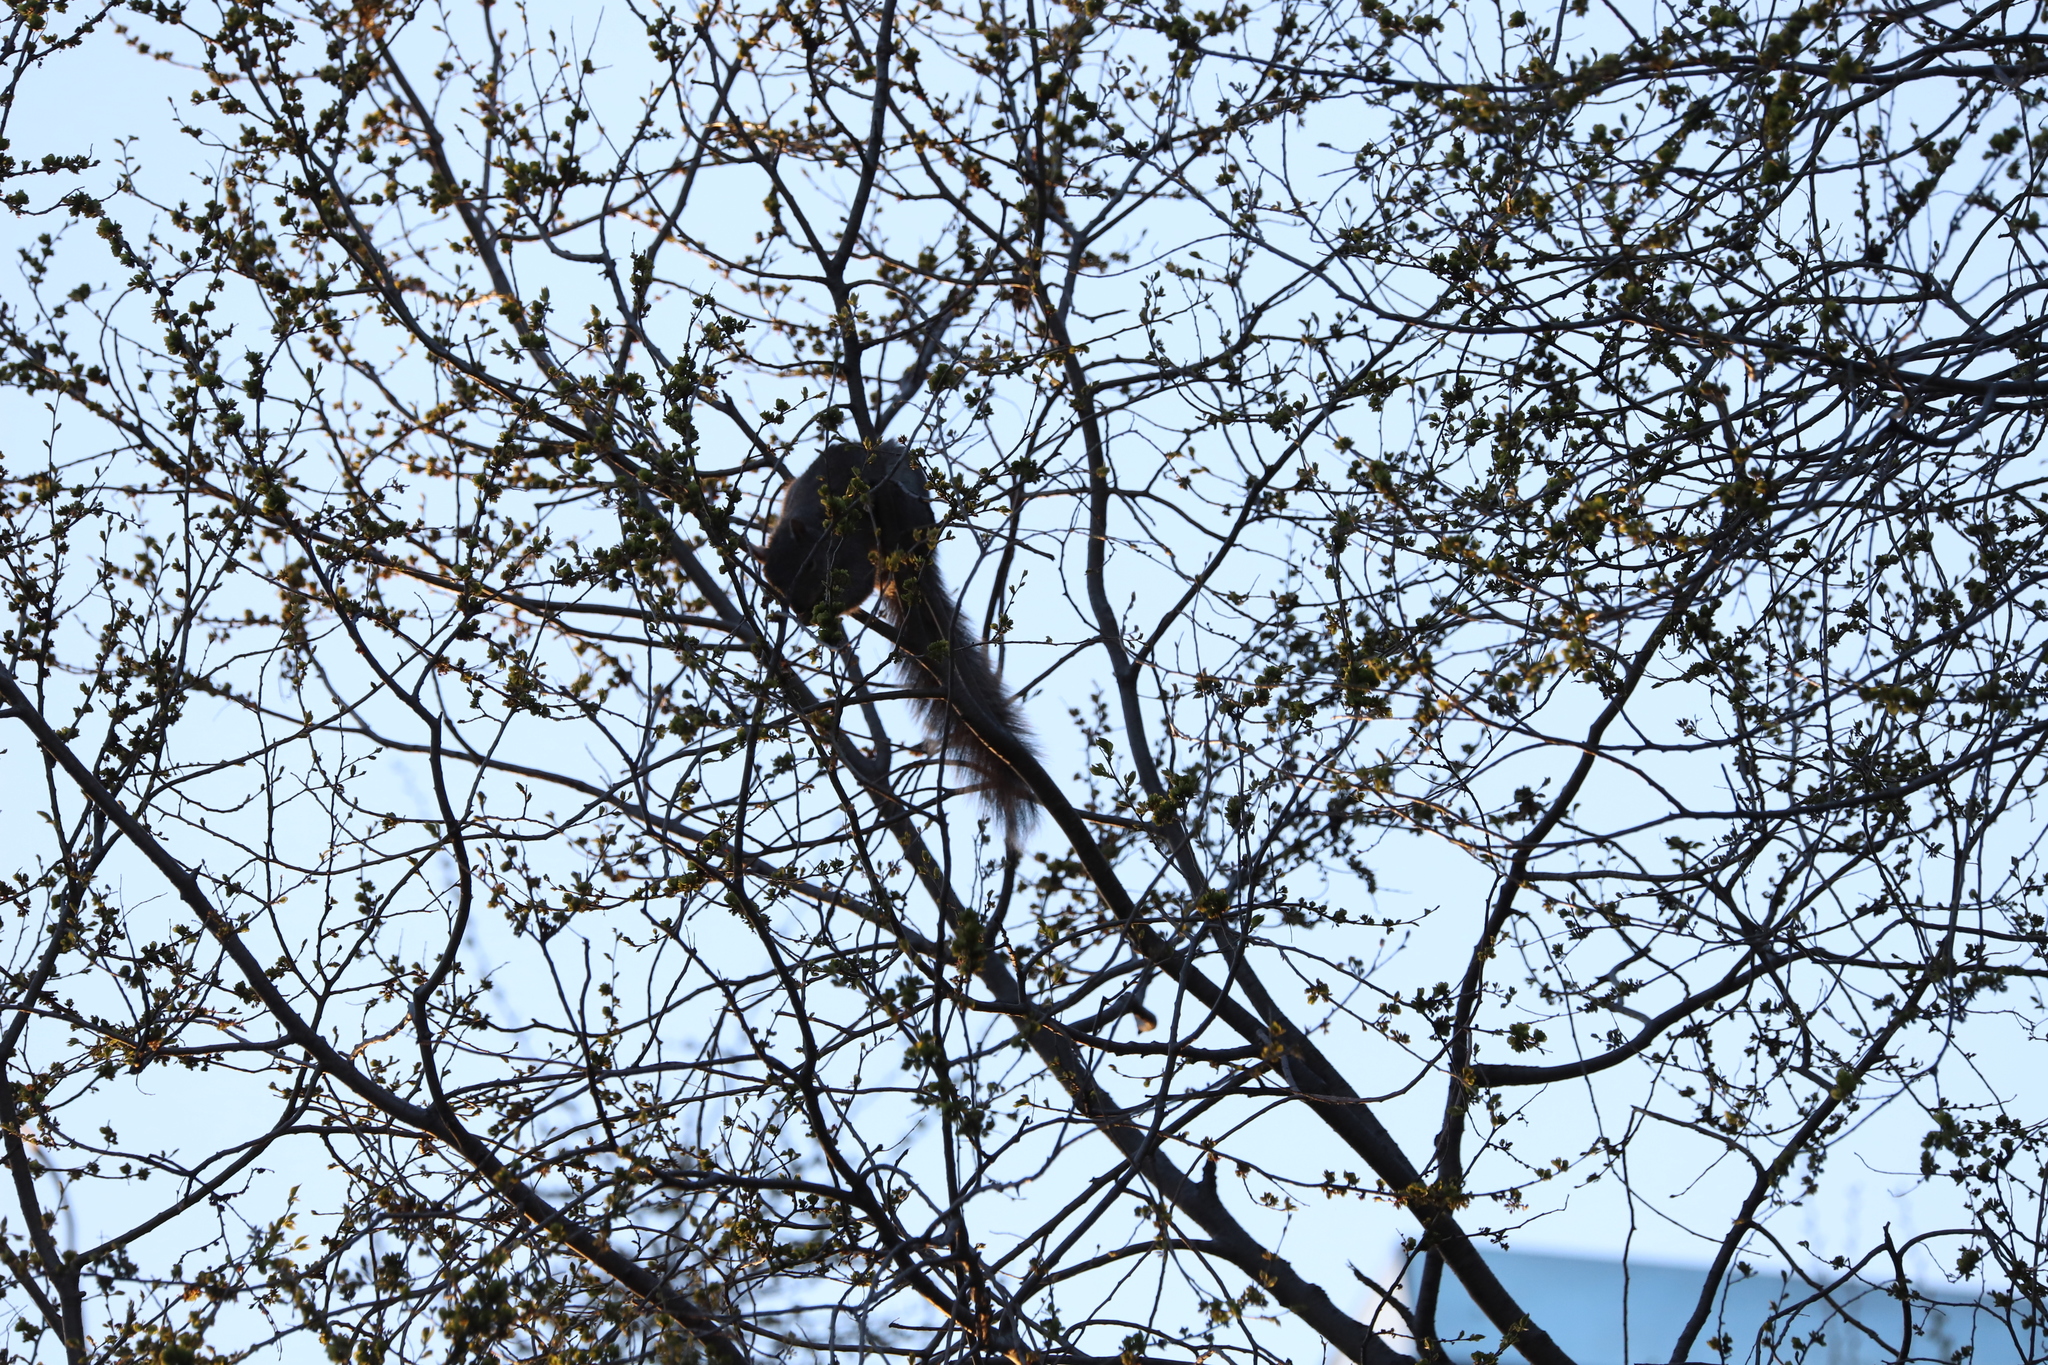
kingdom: Animalia
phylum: Chordata
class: Mammalia
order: Rodentia
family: Sciuridae
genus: Sciurus
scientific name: Sciurus carolinensis
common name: Eastern gray squirrel
